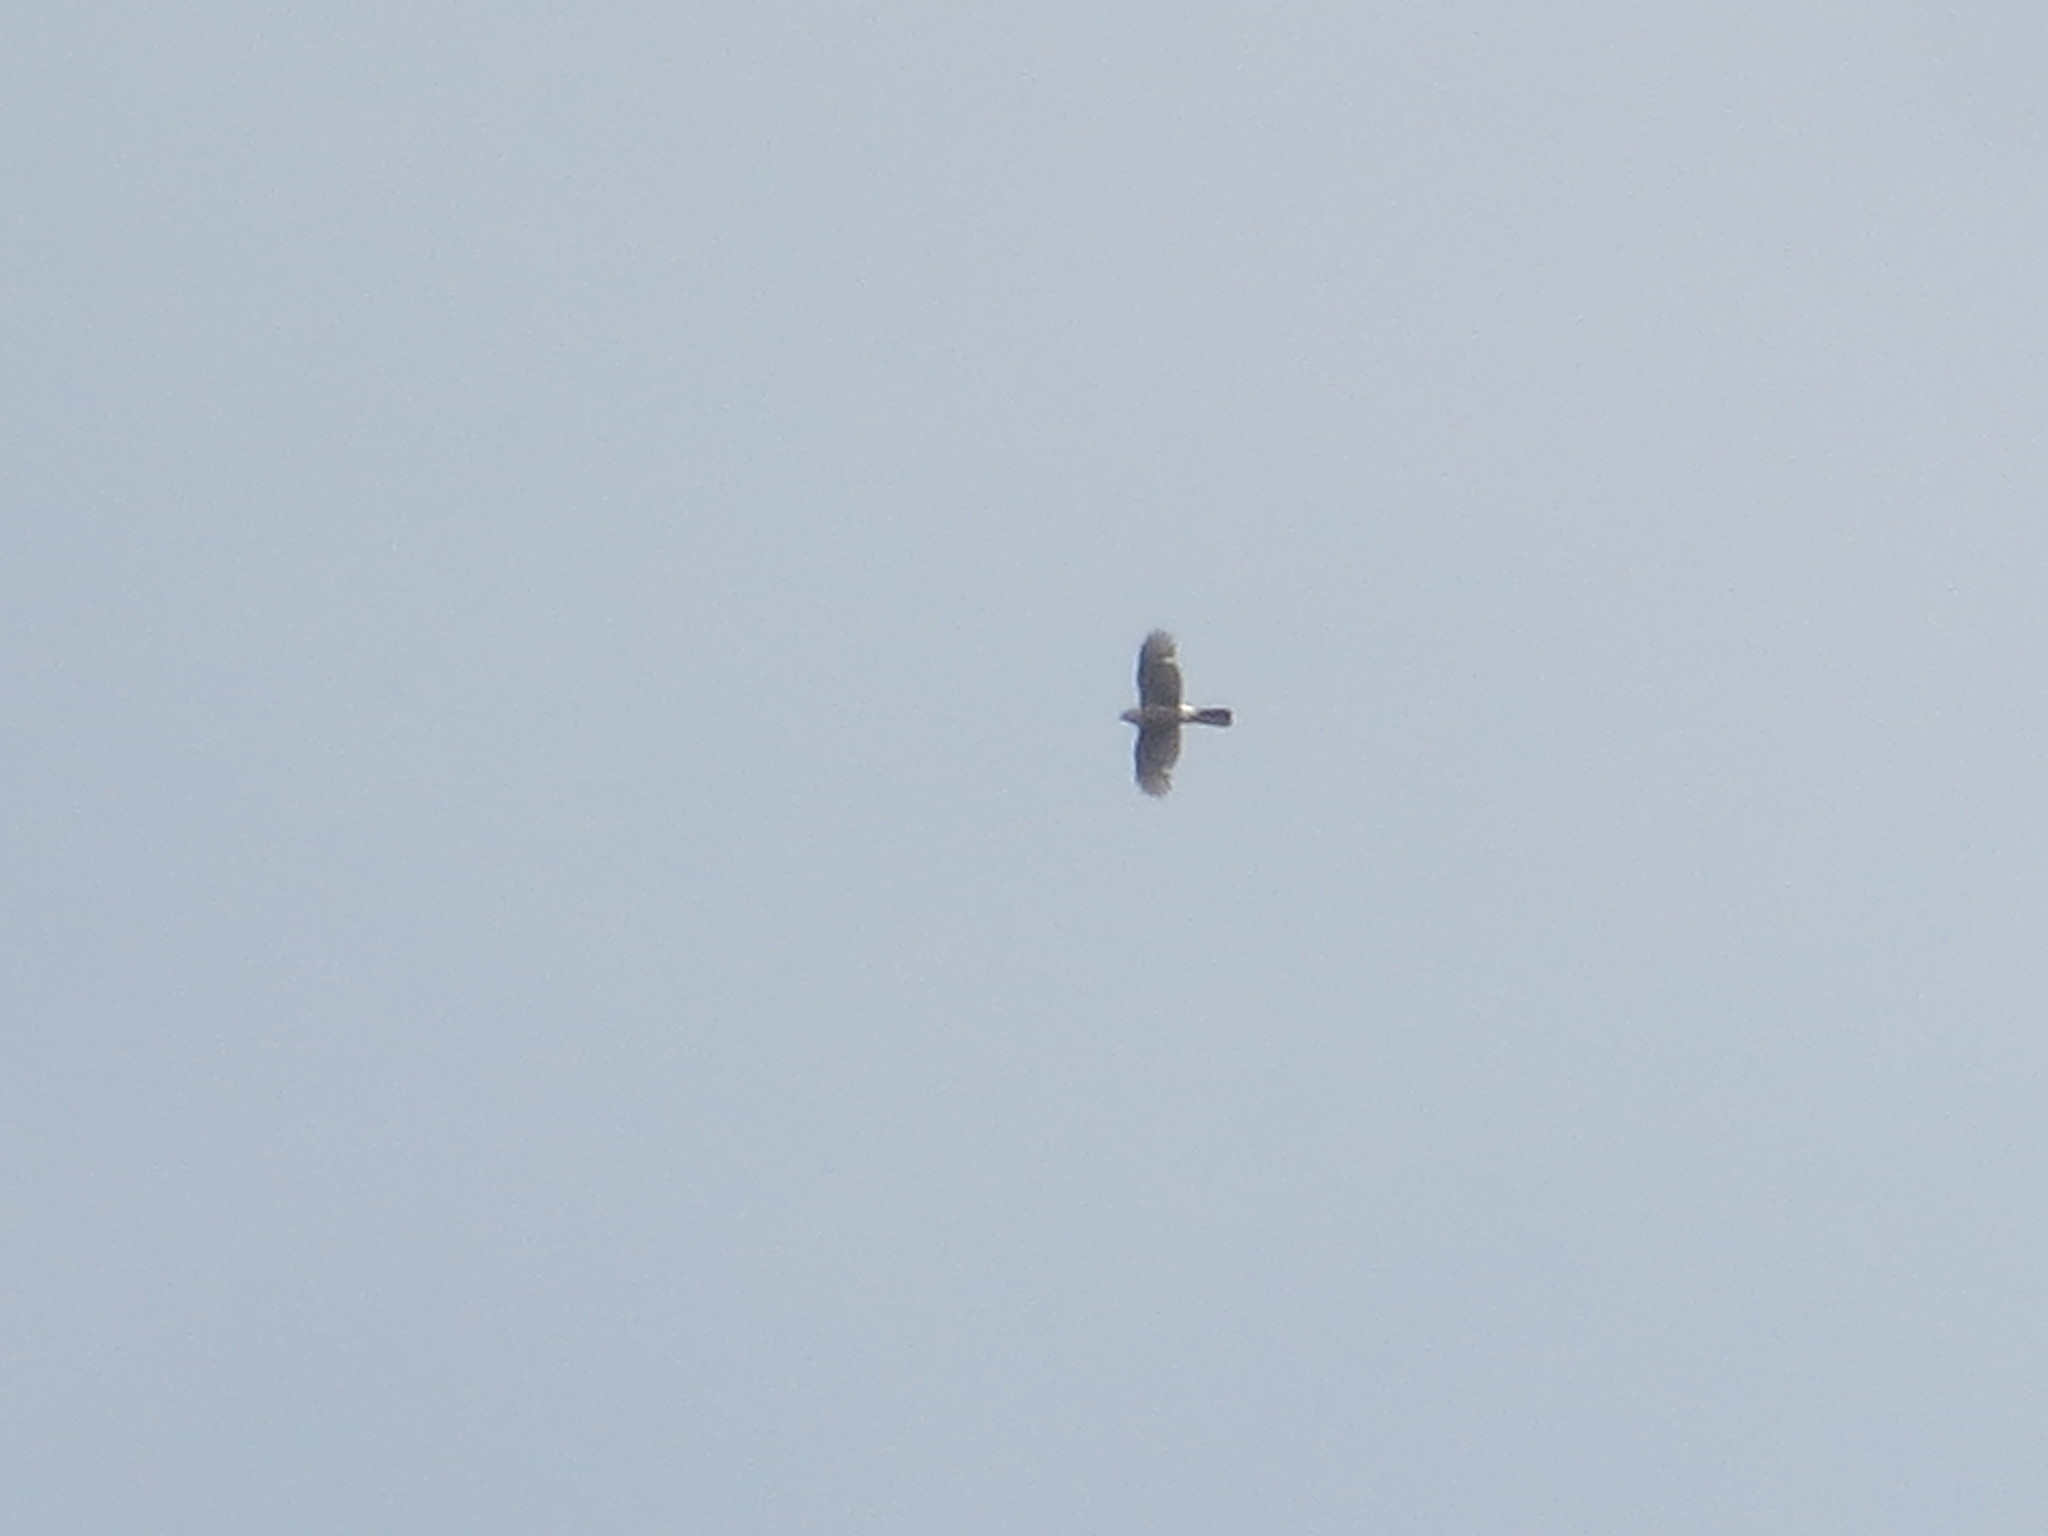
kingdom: Animalia
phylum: Chordata
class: Aves
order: Accipitriformes
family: Accipitridae
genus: Accipiter
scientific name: Accipiter cooperii
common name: Cooper's hawk
